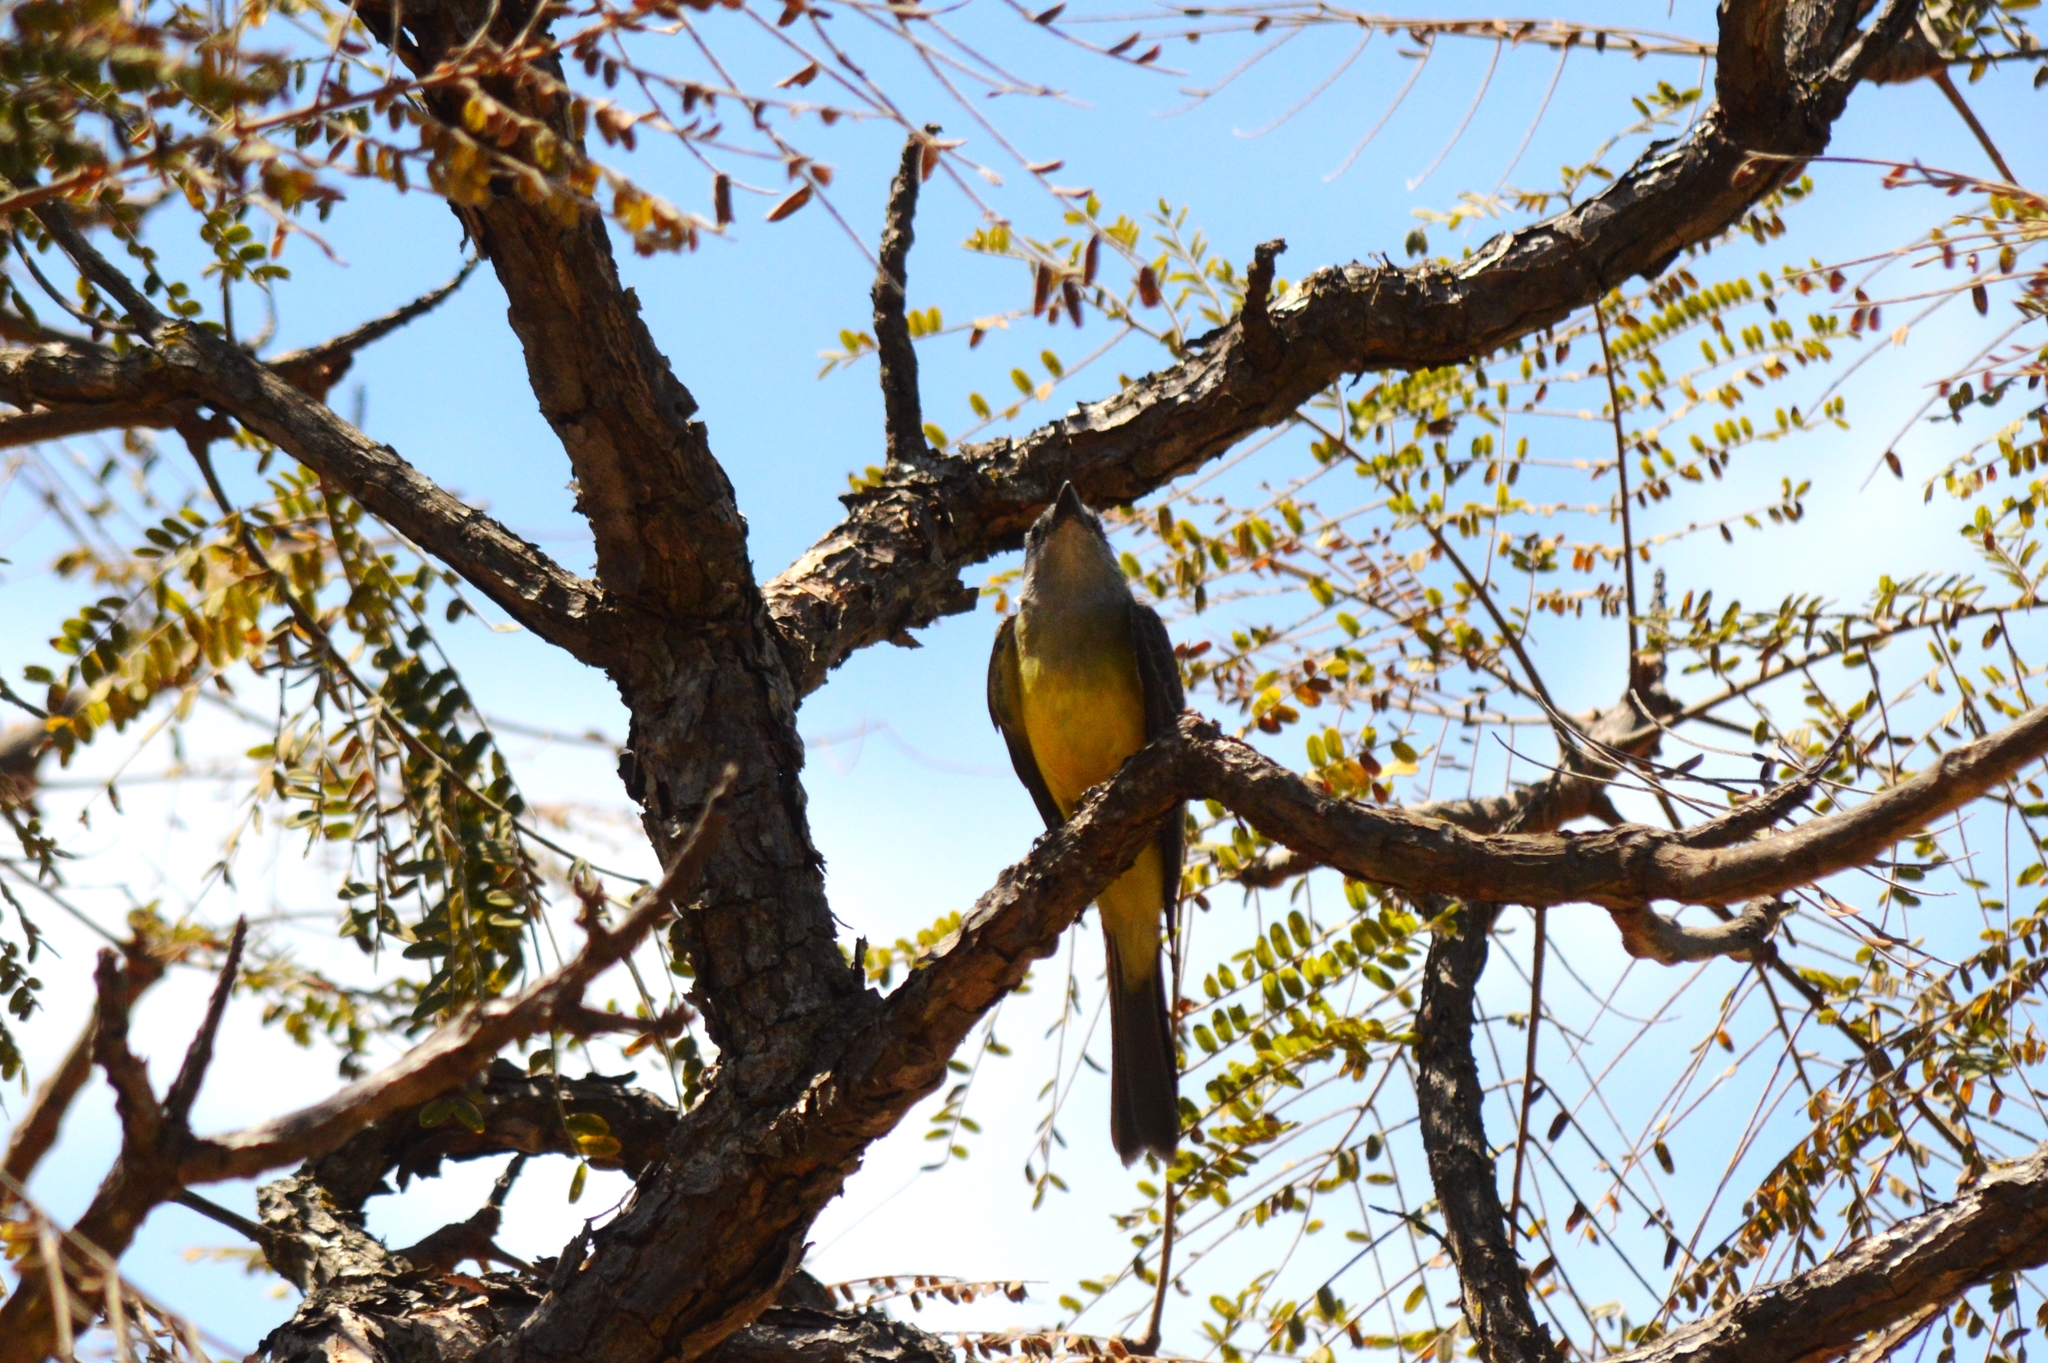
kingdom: Animalia
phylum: Chordata
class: Aves
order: Passeriformes
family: Tyrannidae
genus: Tyrannus
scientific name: Tyrannus melancholicus
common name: Tropical kingbird
